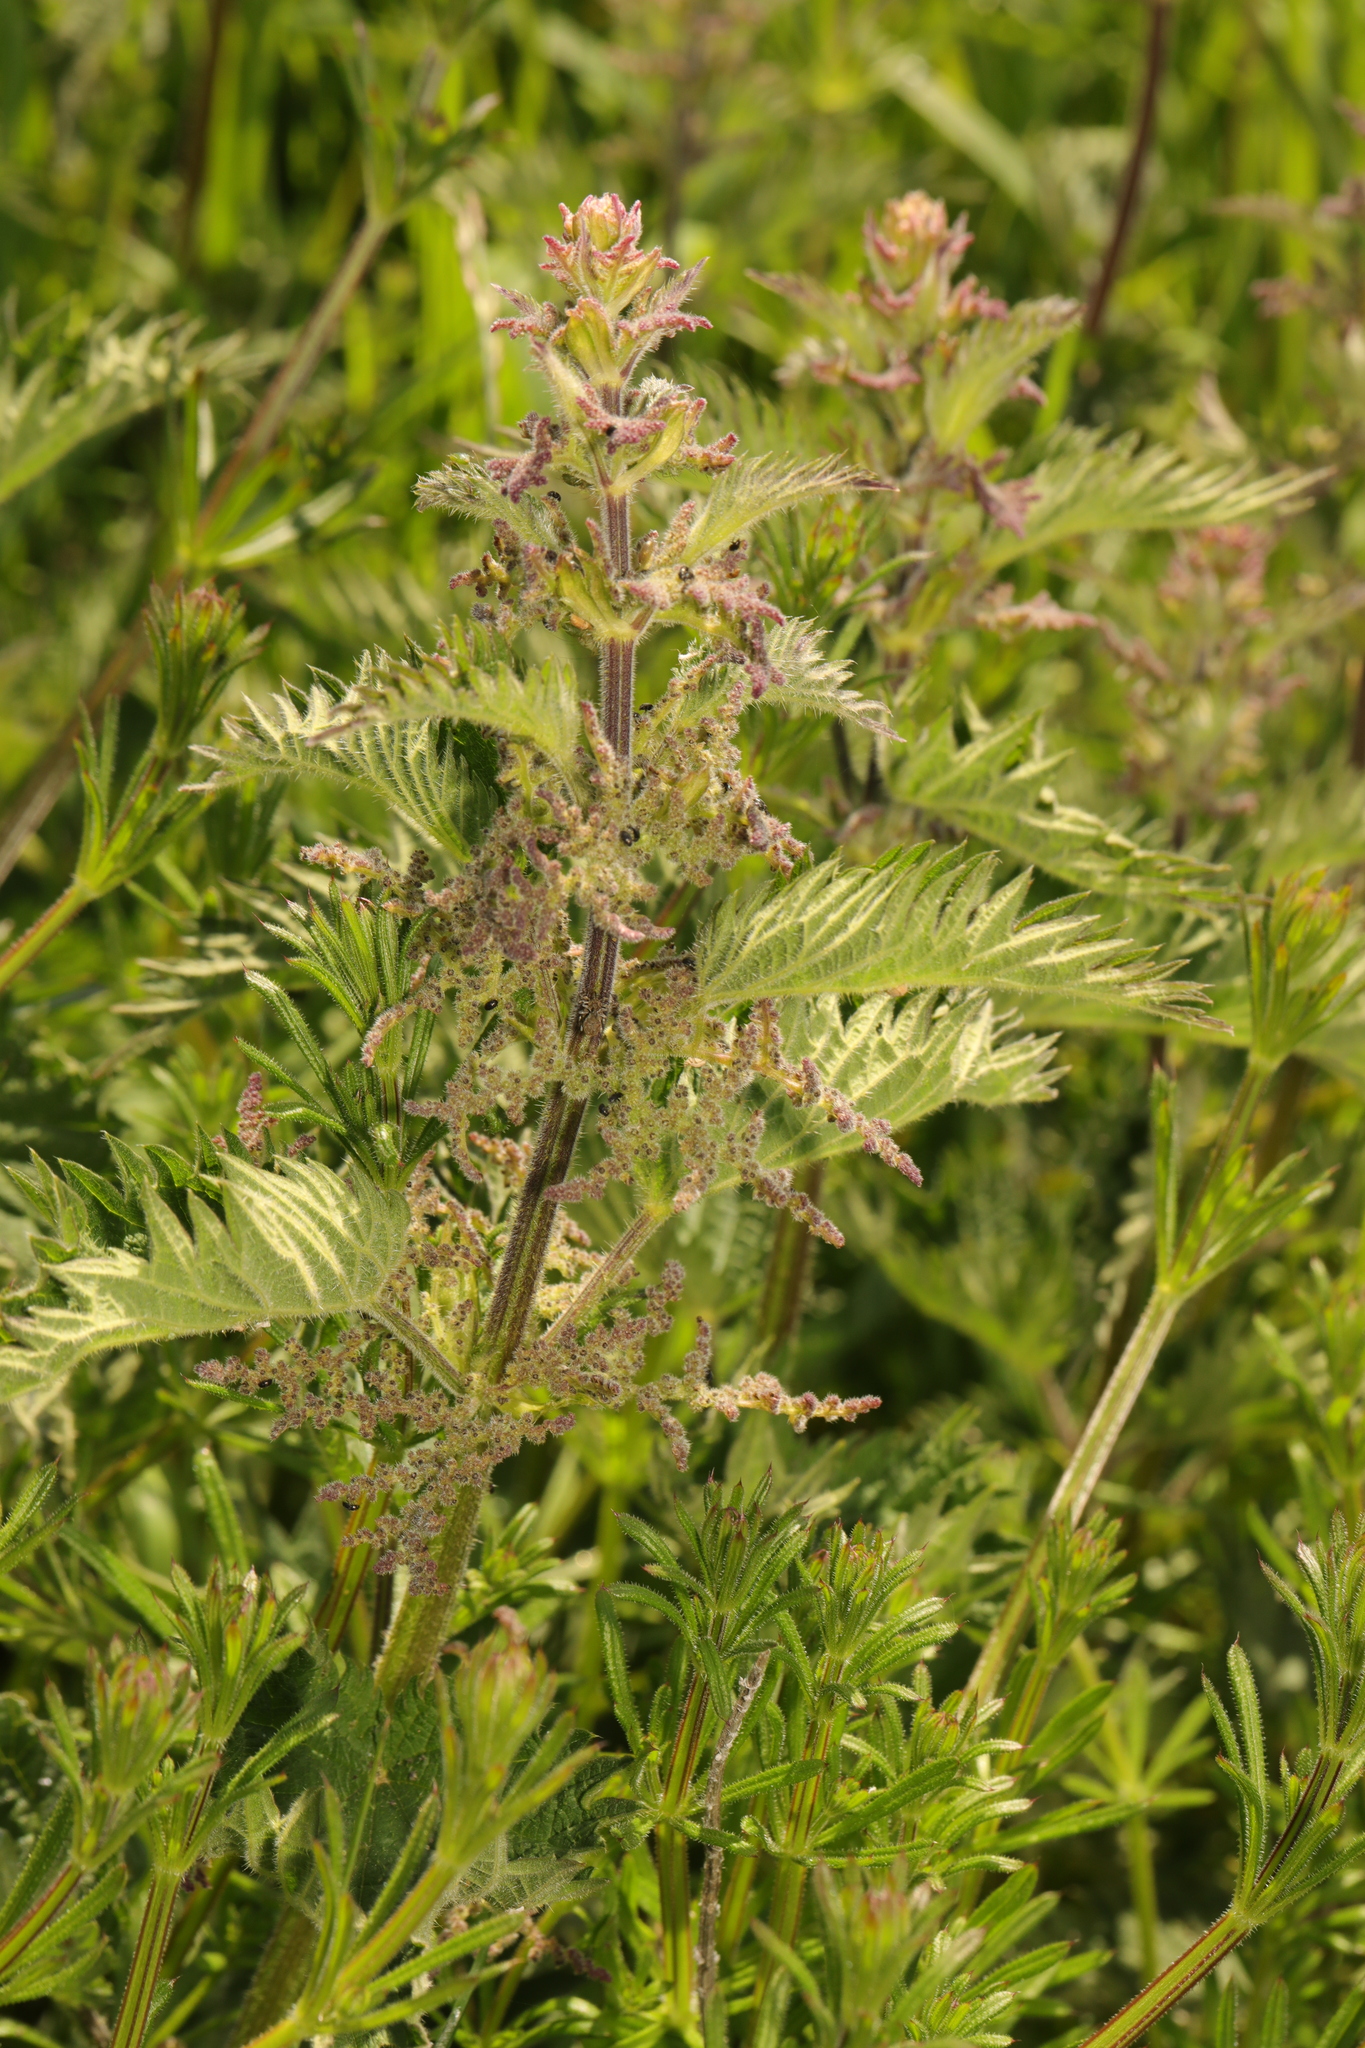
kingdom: Plantae
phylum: Tracheophyta
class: Magnoliopsida
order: Rosales
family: Urticaceae
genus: Urtica
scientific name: Urtica dioica
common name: Common nettle
